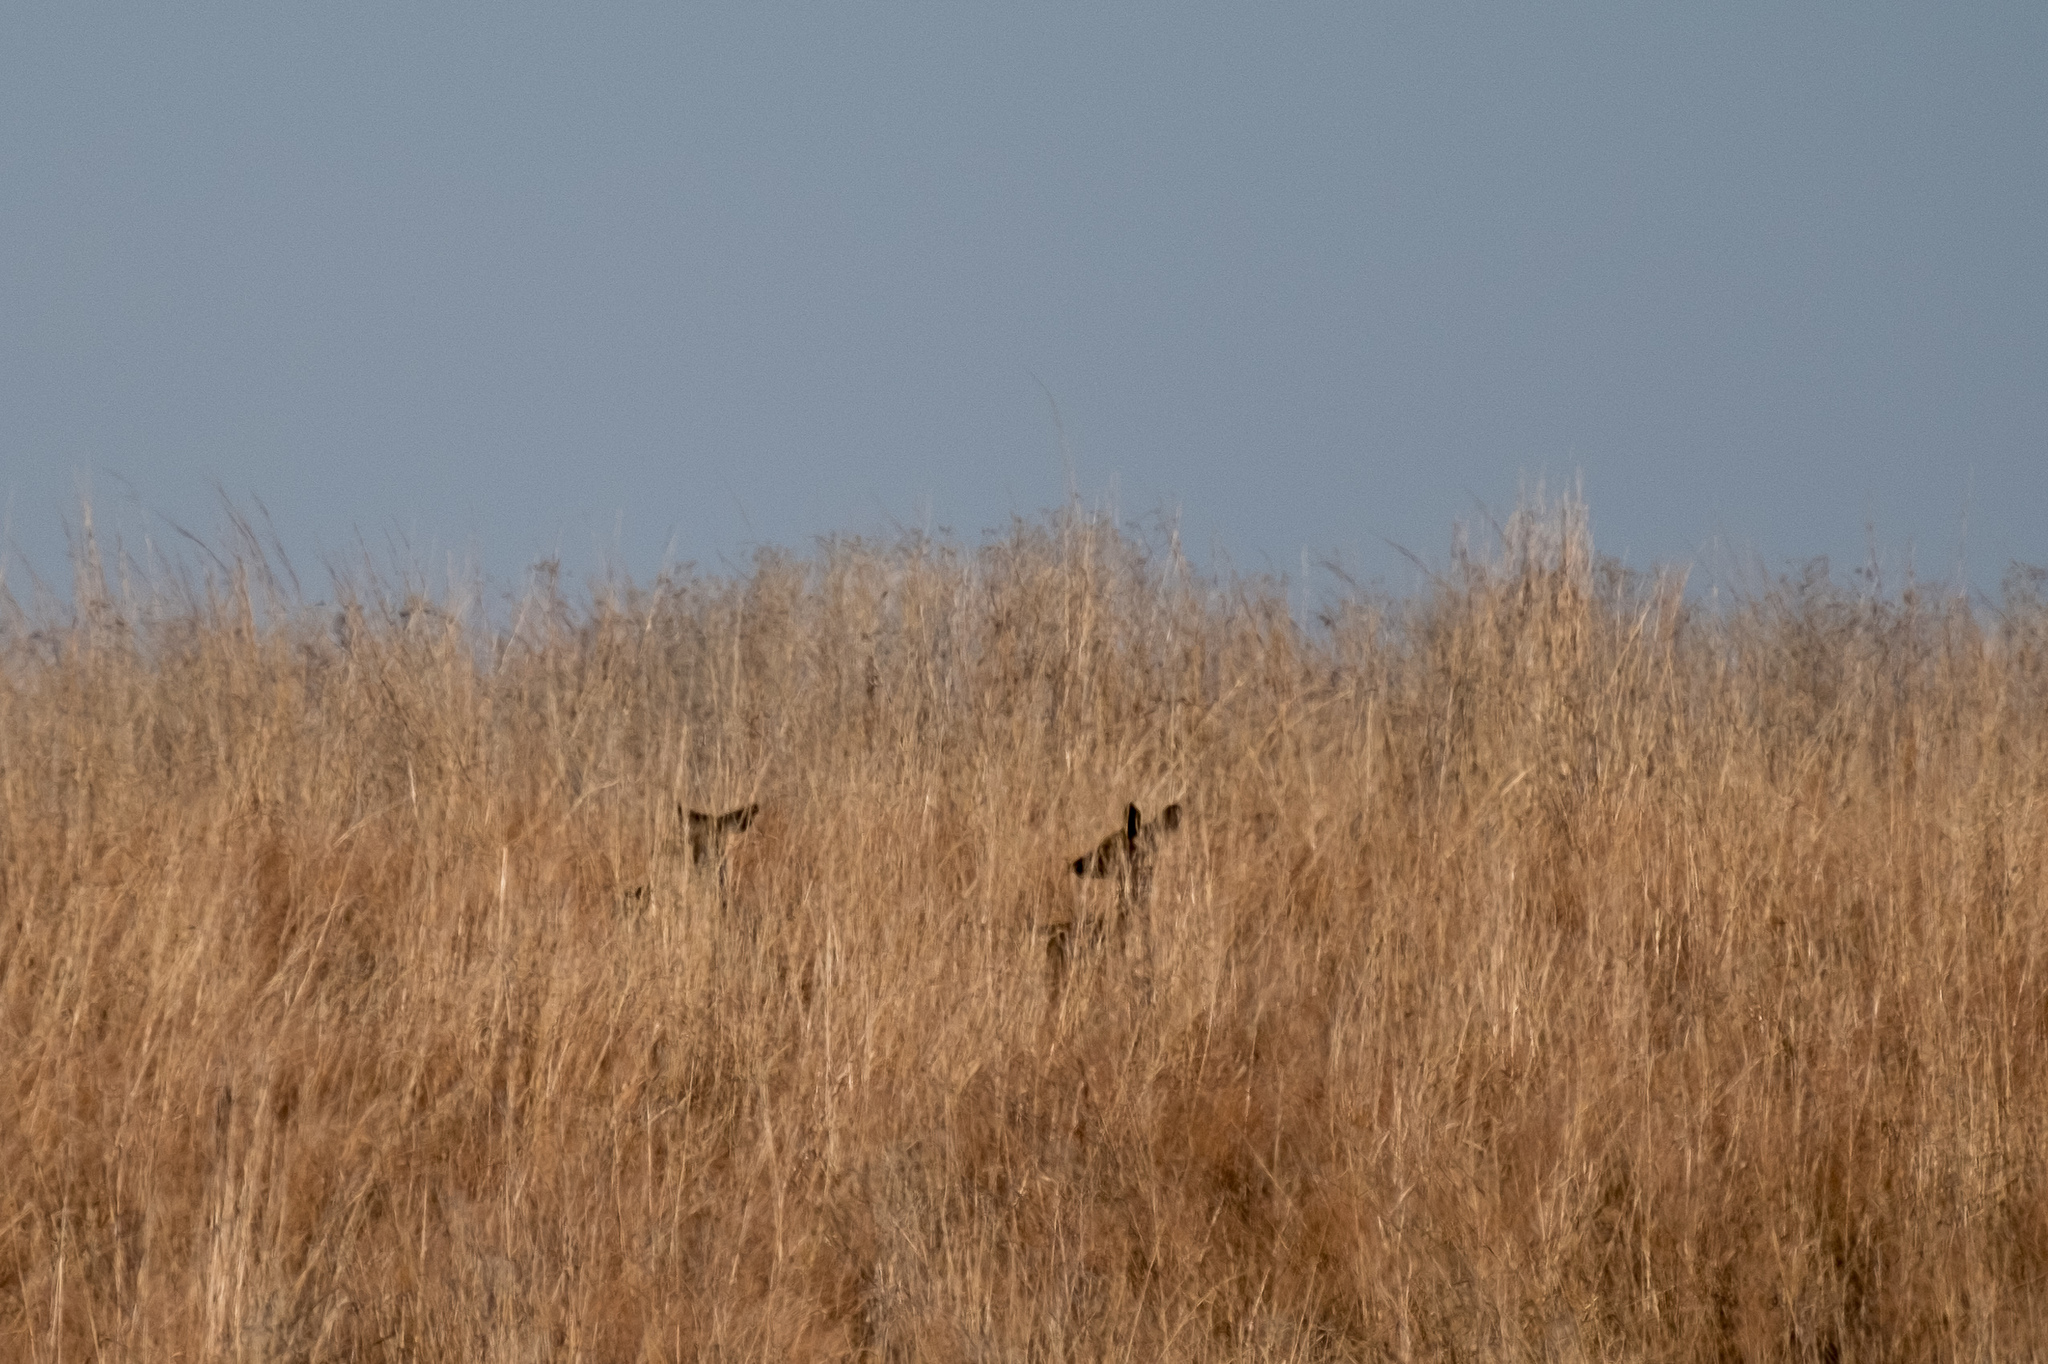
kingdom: Animalia
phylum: Chordata
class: Mammalia
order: Artiodactyla
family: Cervidae
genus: Odocoileus
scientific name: Odocoileus virginianus
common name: White-tailed deer
